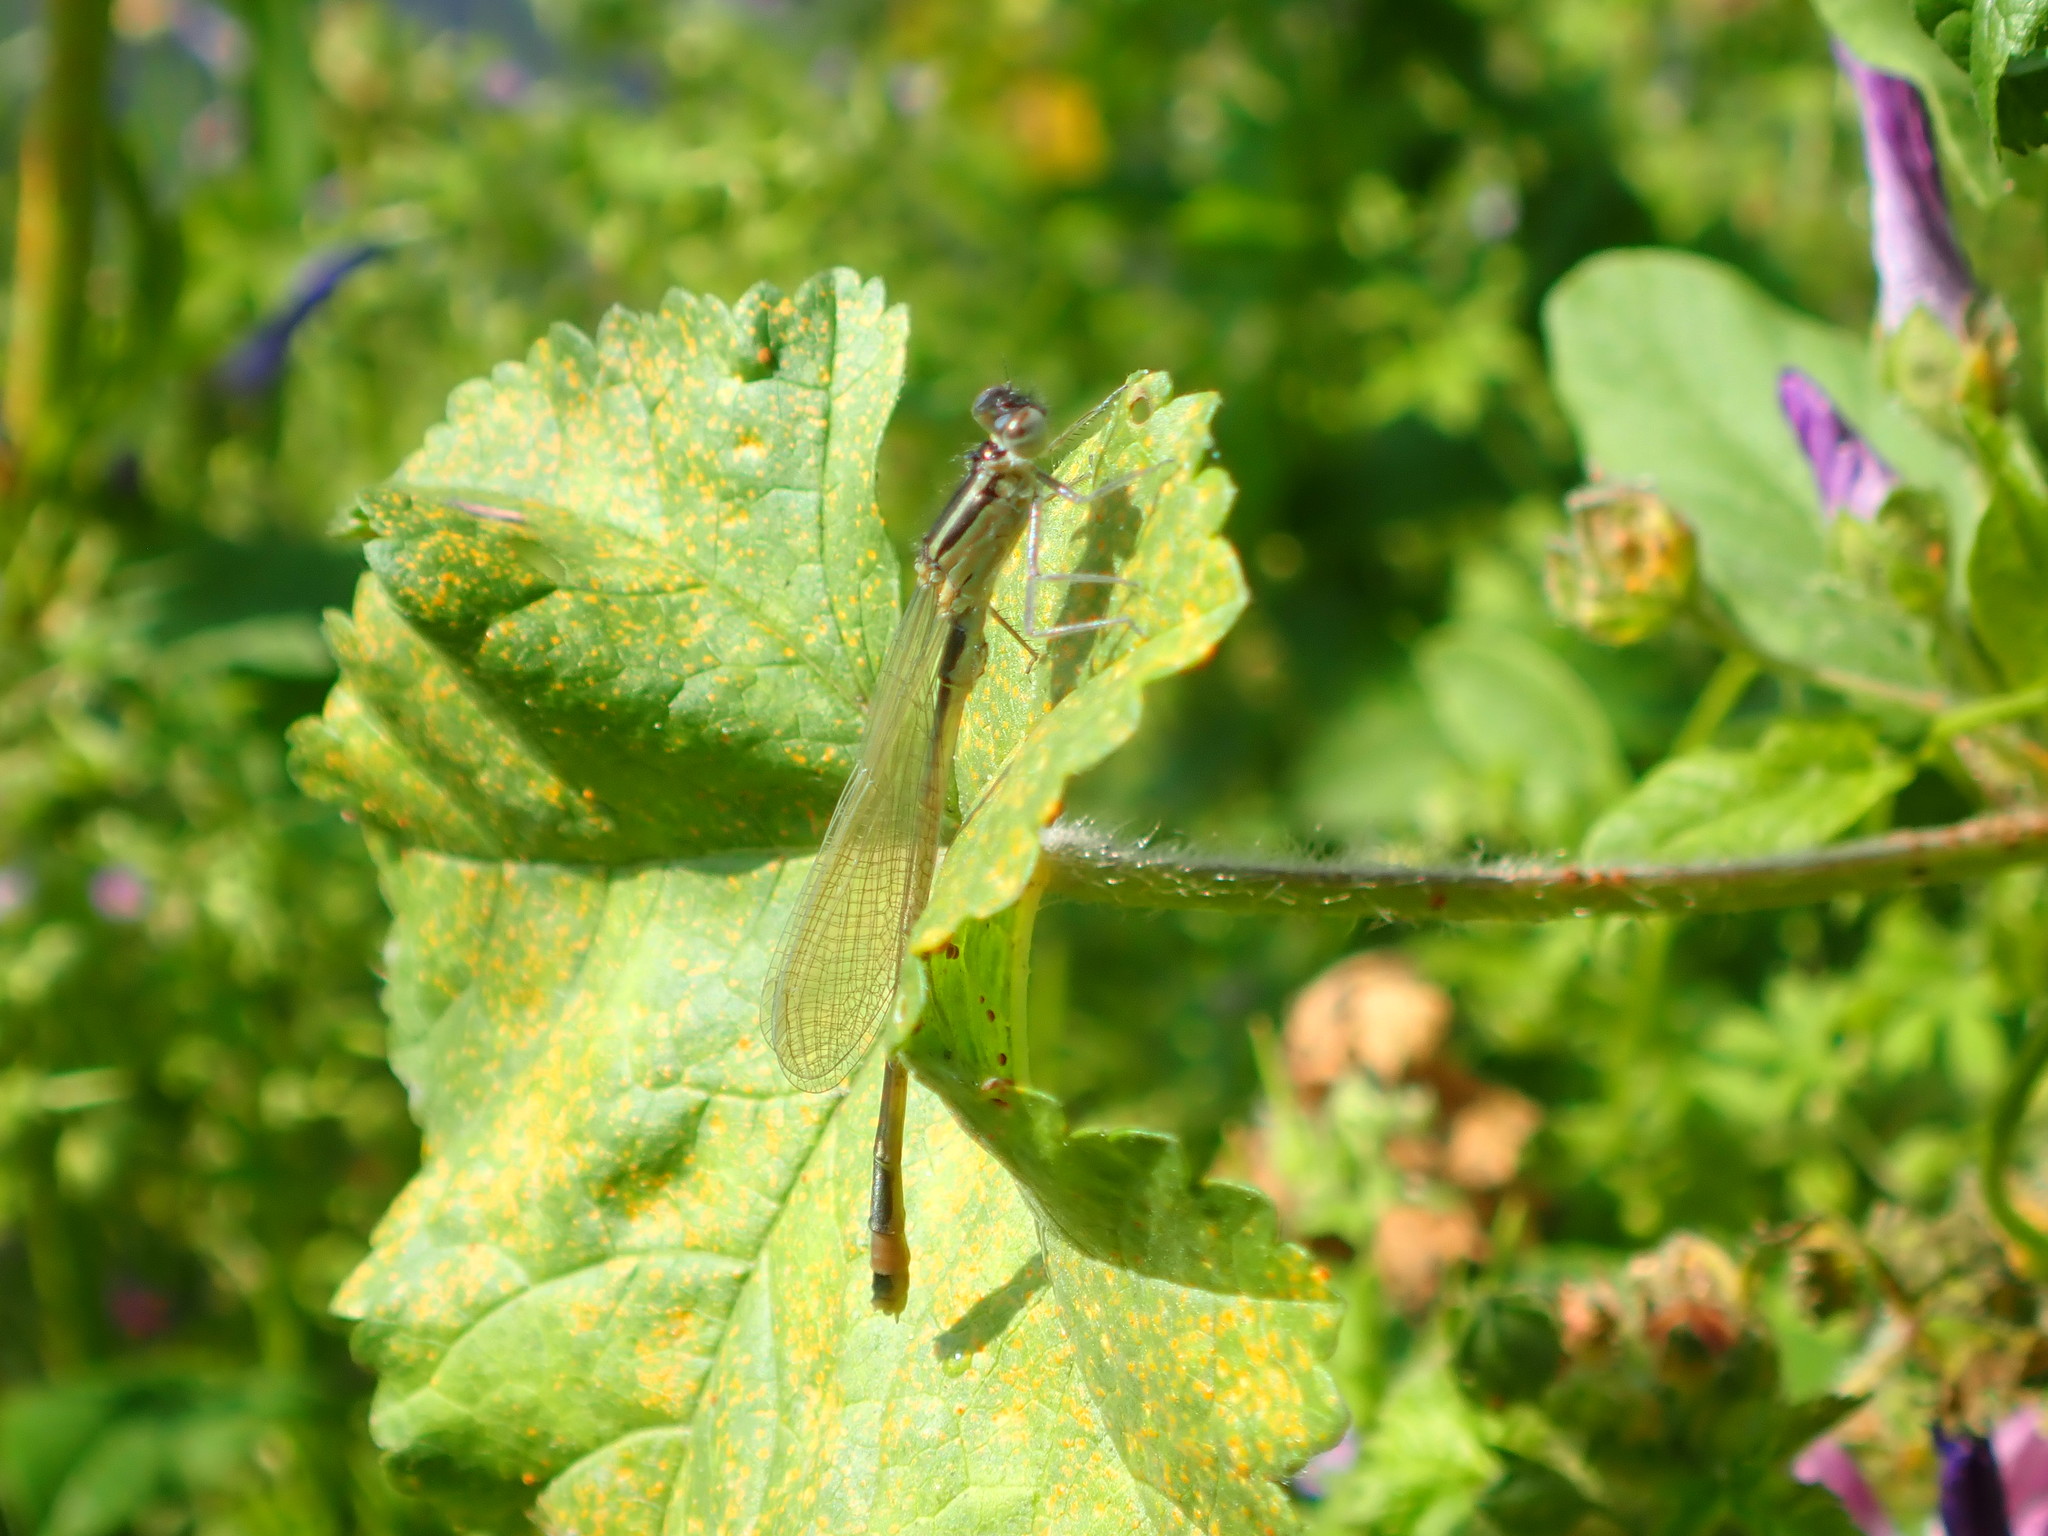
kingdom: Animalia
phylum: Arthropoda
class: Insecta
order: Odonata
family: Coenagrionidae
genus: Ischnura
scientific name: Ischnura elegans
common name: Blue-tailed damselfly
